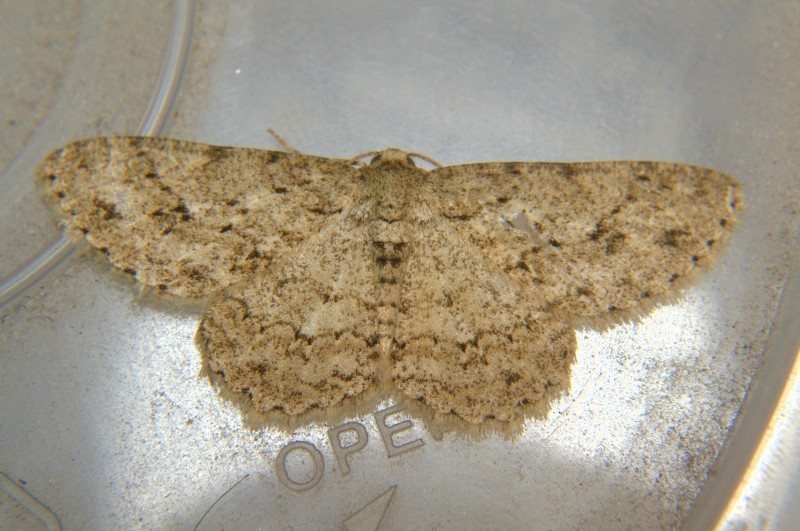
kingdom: Animalia
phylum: Arthropoda
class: Insecta
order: Lepidoptera
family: Geometridae
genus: Ectropis
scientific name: Ectropis bhurmitra
